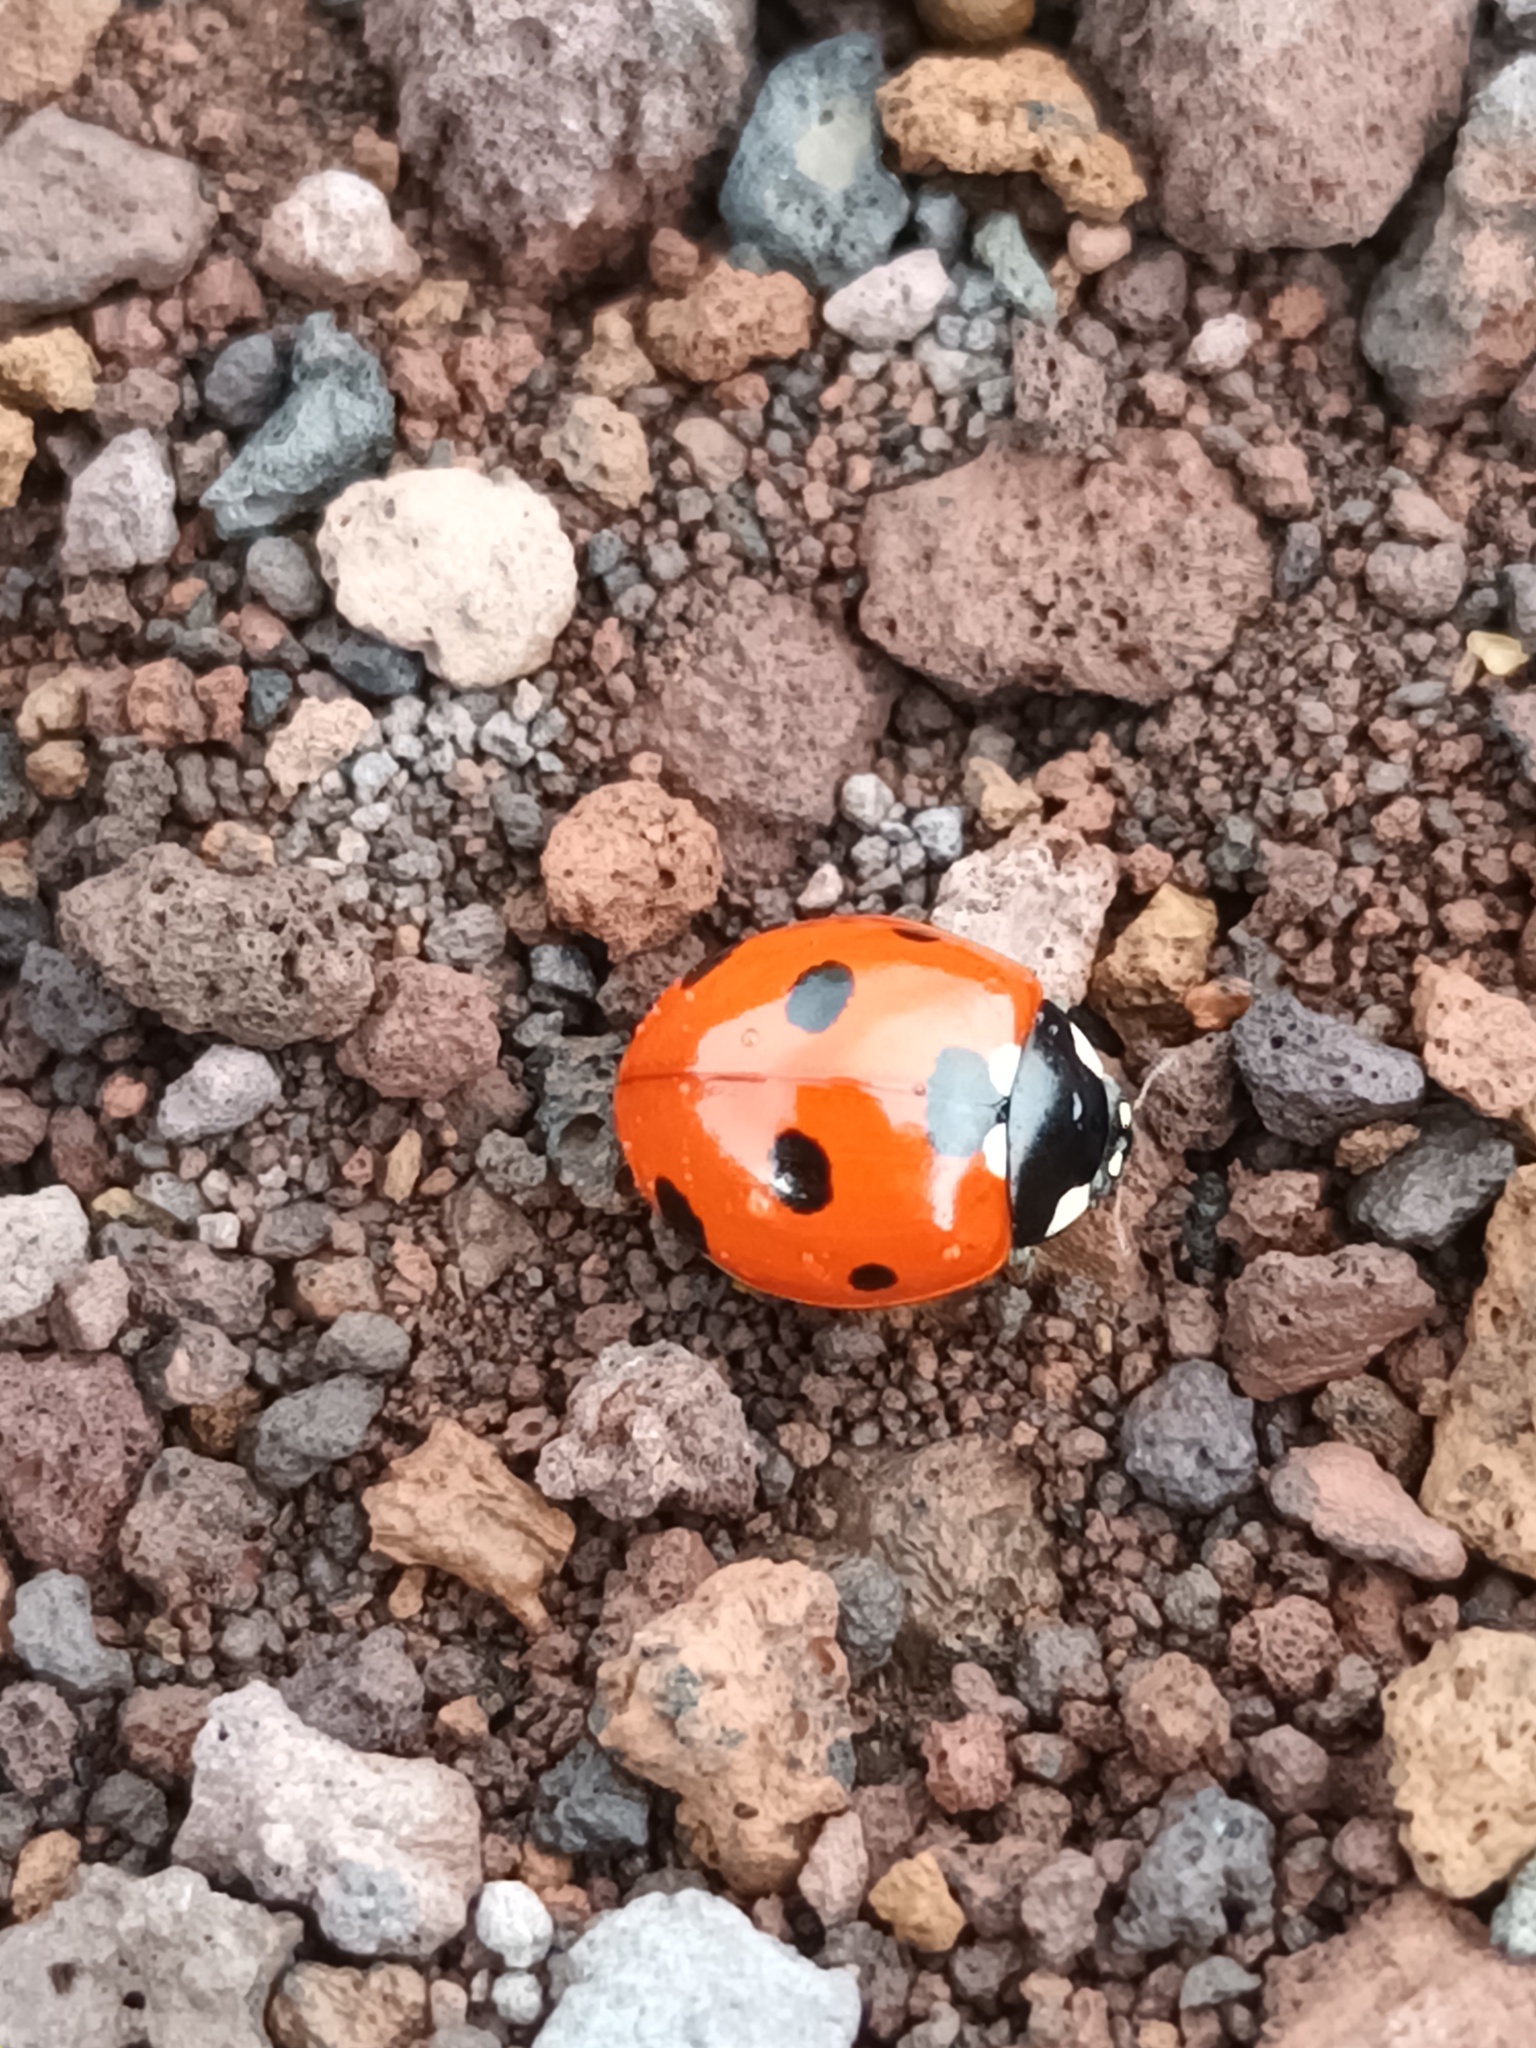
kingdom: Animalia
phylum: Arthropoda
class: Insecta
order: Coleoptera
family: Coccinellidae
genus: Coccinella
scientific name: Coccinella septempunctata
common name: Sevenspotted lady beetle
